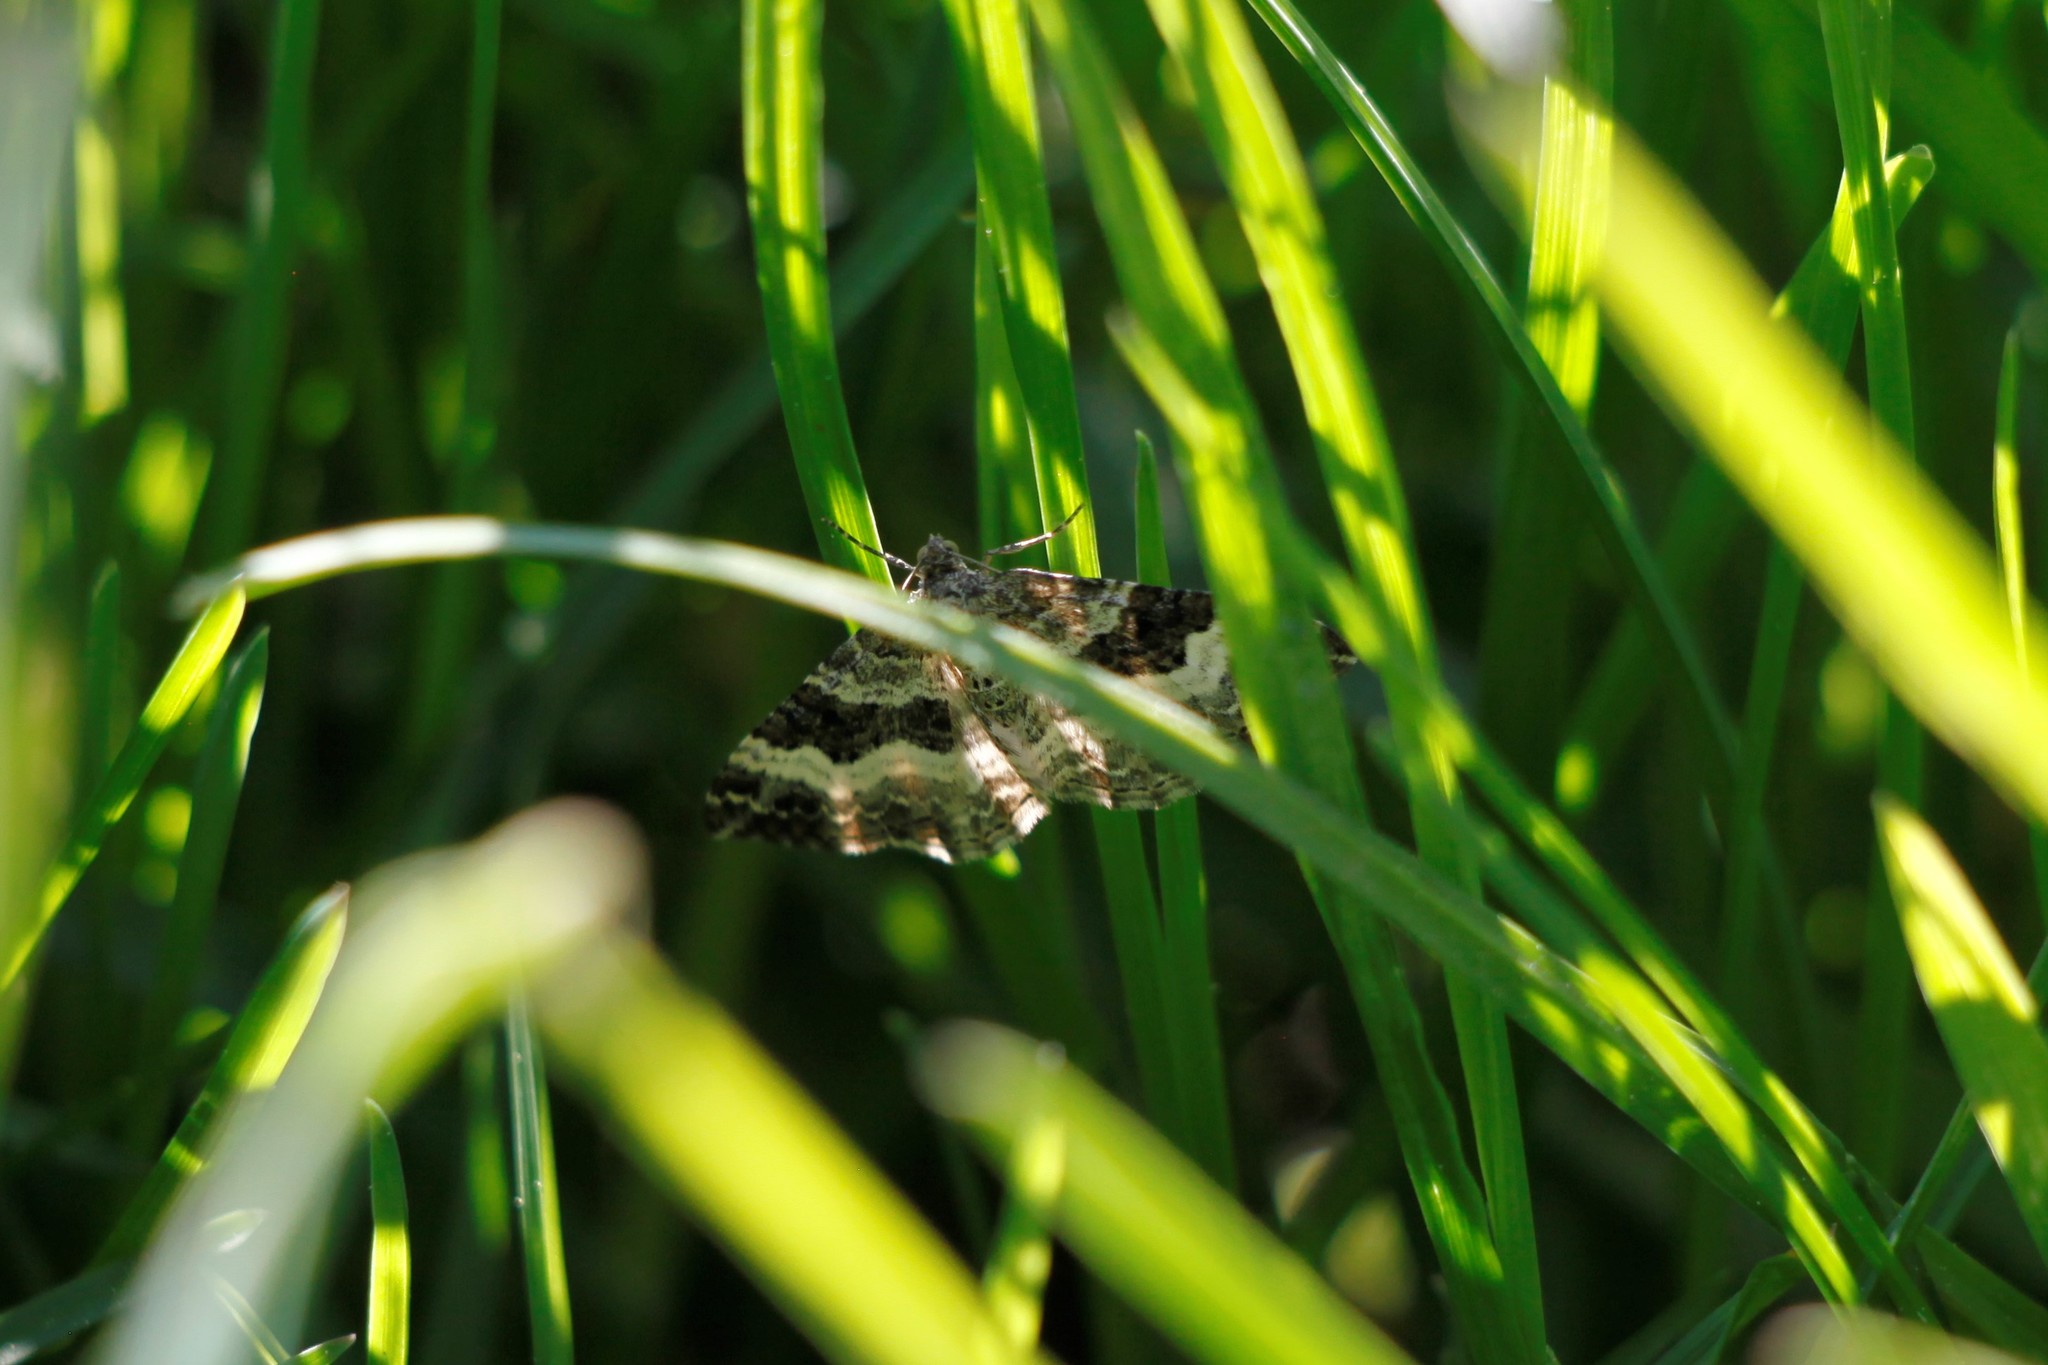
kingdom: Animalia
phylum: Arthropoda
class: Insecta
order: Lepidoptera
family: Geometridae
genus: Epirrhoe
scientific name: Epirrhoe alternata
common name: Common carpet
